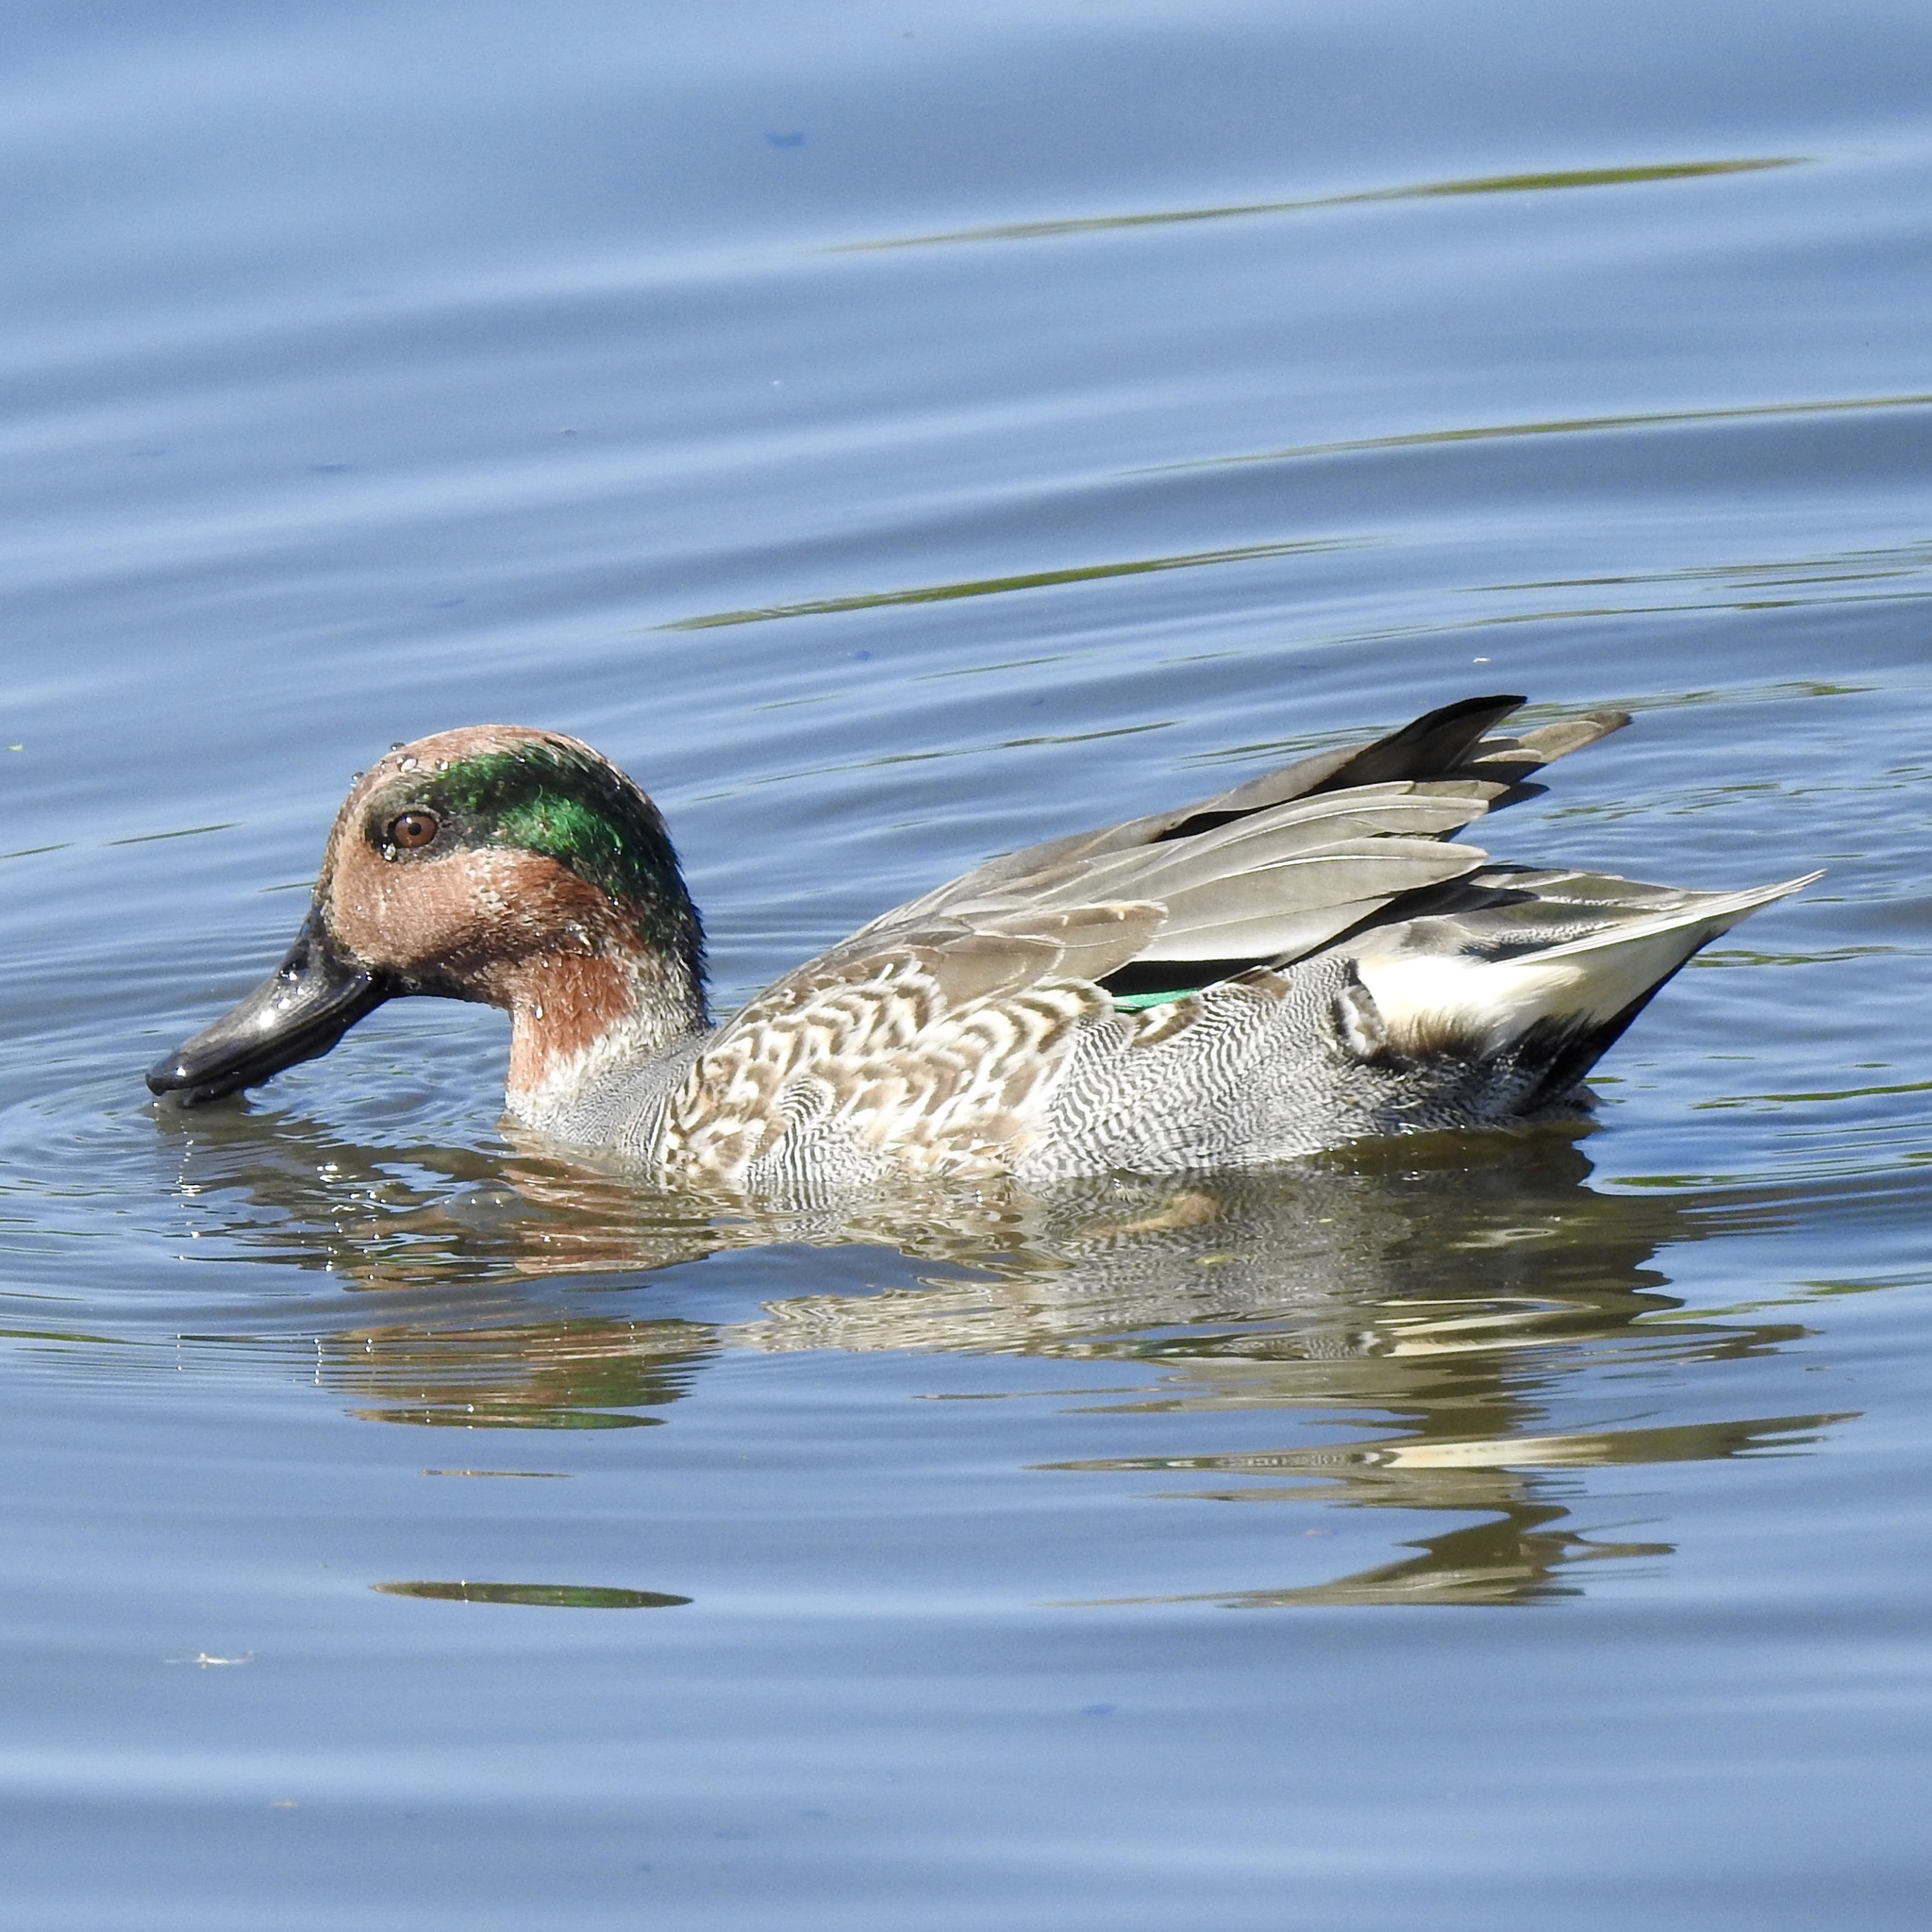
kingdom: Animalia
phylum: Chordata
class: Aves
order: Anseriformes
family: Anatidae
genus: Anas
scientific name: Anas crecca
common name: Eurasian teal
